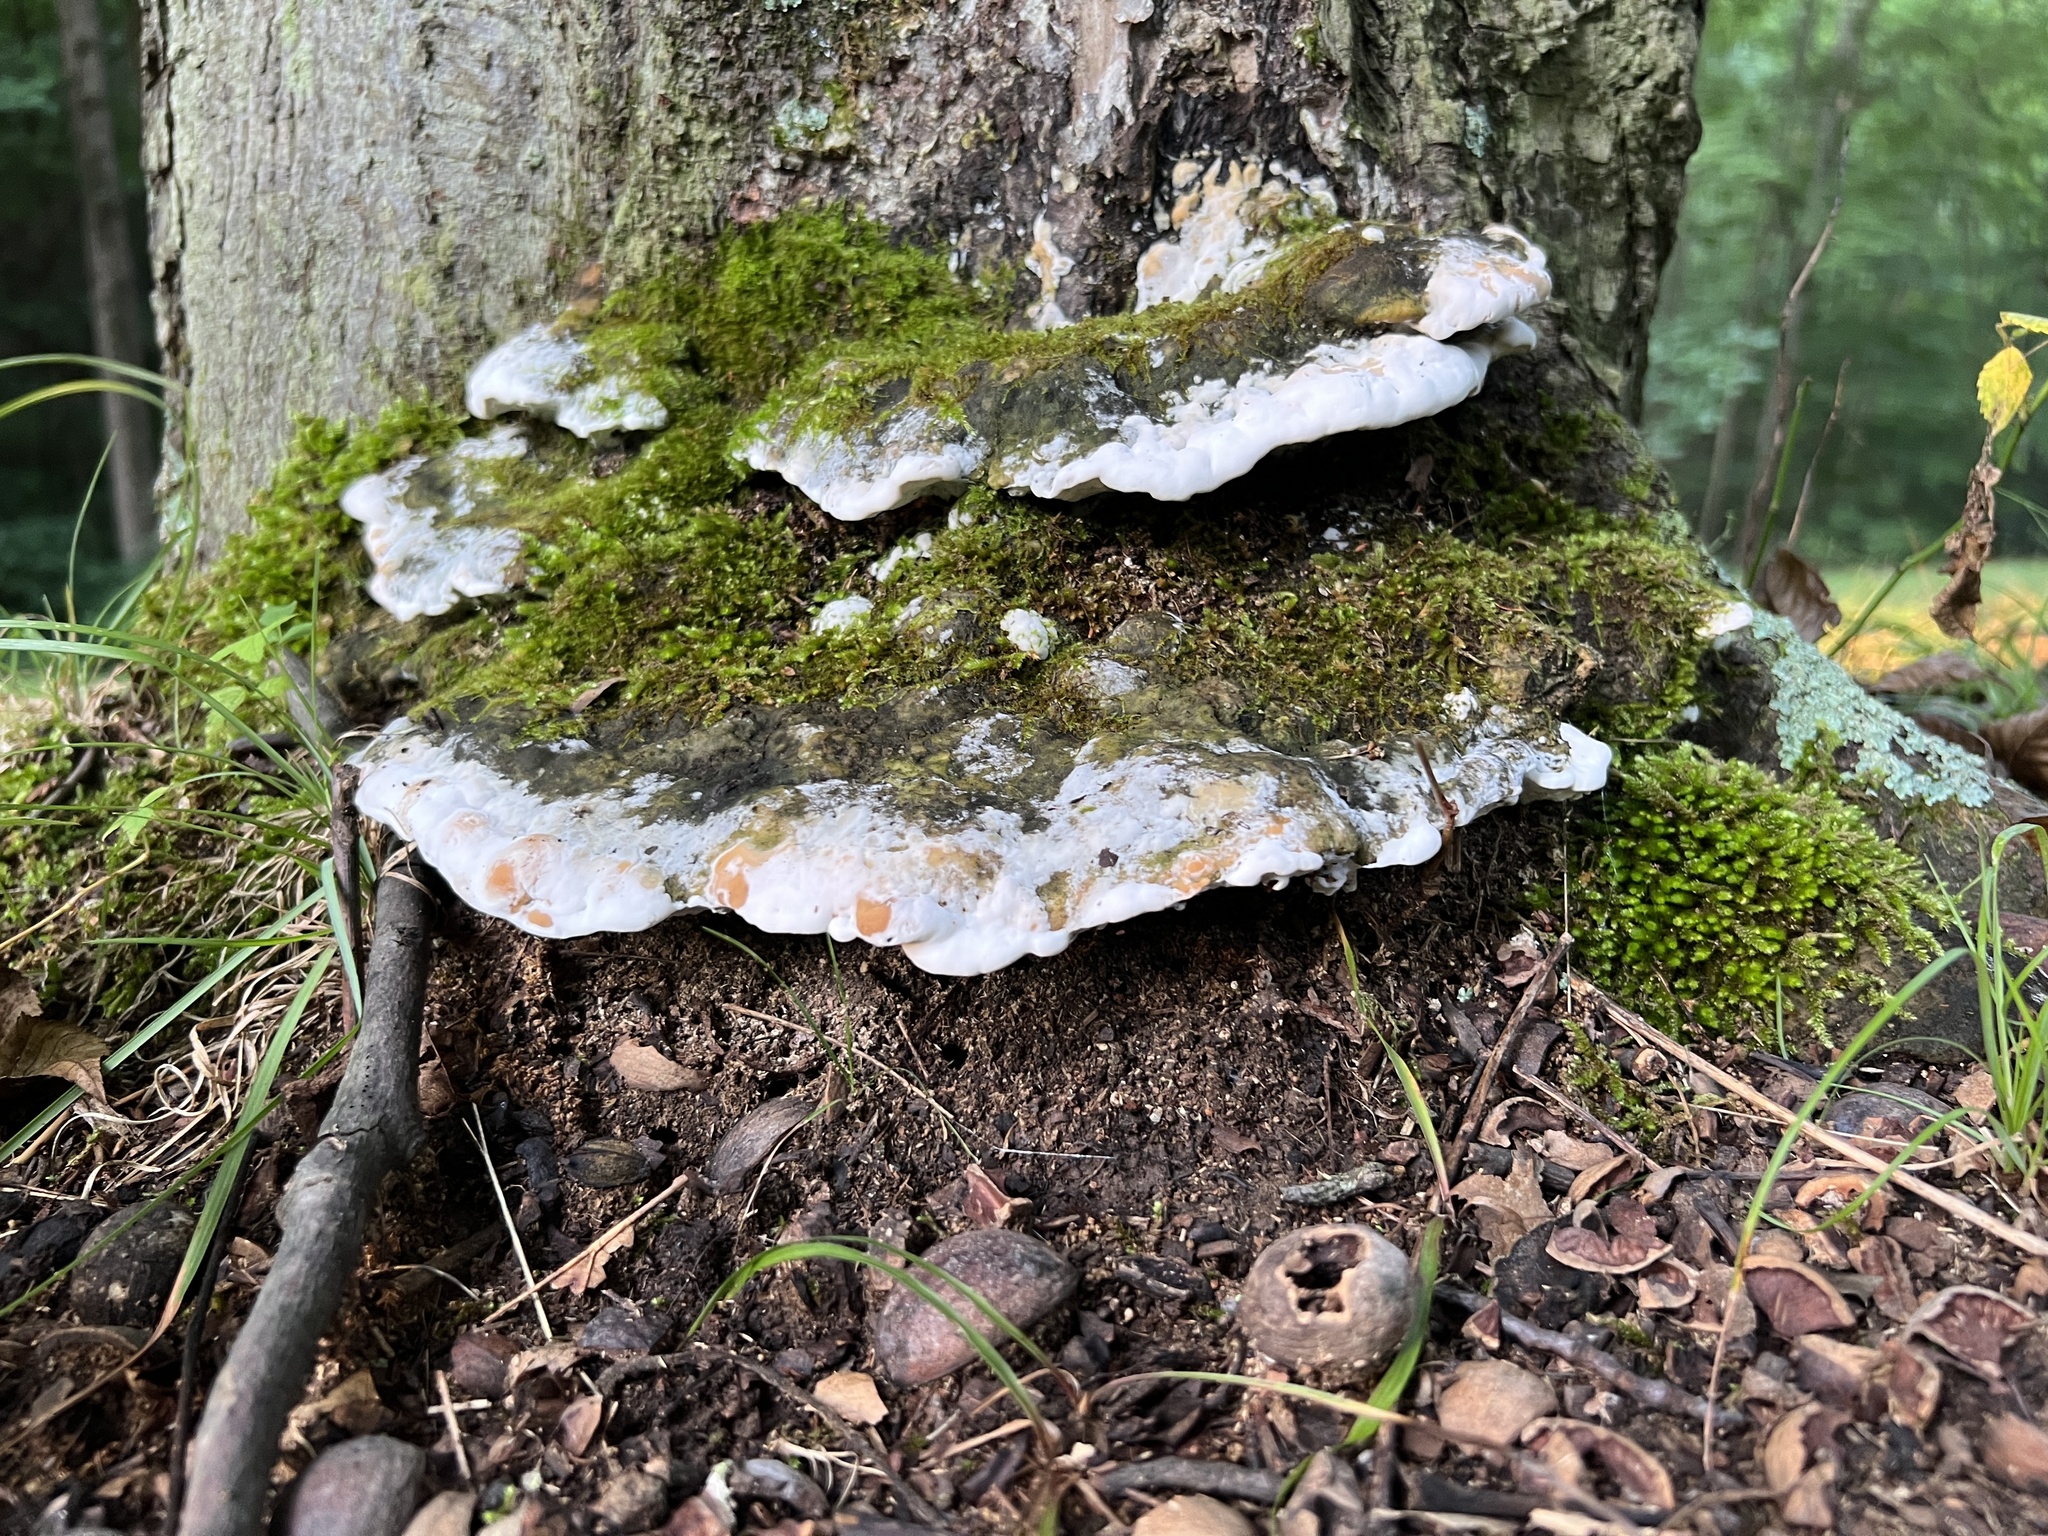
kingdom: Fungi
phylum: Basidiomycota
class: Agaricomycetes
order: Hymenochaetales
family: Oxyporaceae
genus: Oxyporus
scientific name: Oxyporus populinus
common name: Poplar bracket
